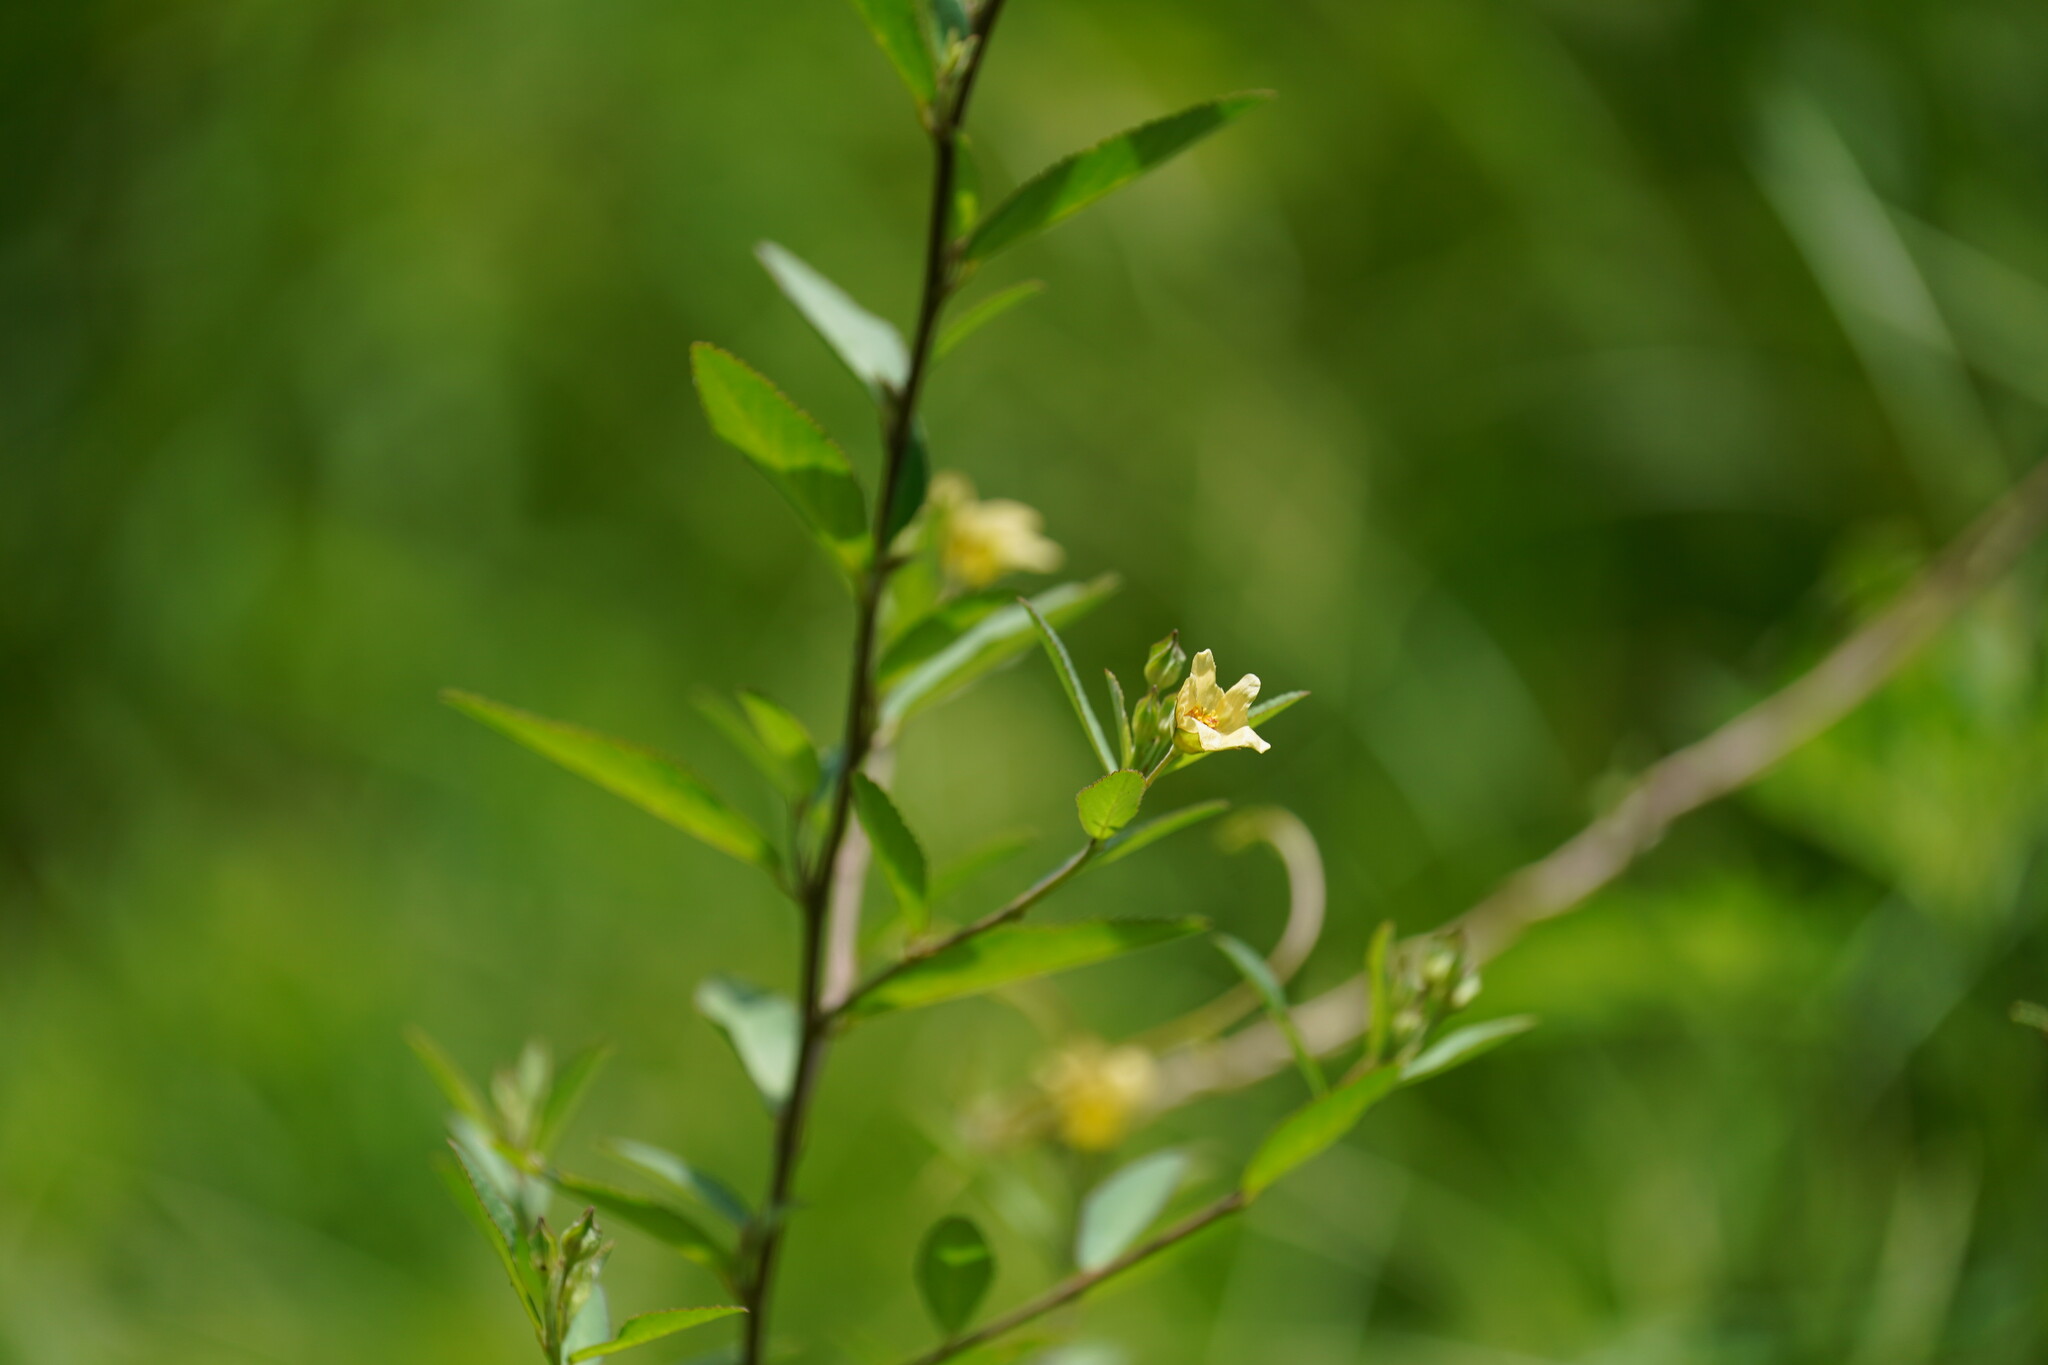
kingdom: Plantae
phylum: Tracheophyta
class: Magnoliopsida
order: Malvales
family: Malvaceae
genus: Sida
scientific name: Sida rhombifolia
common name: Queensland-hemp
